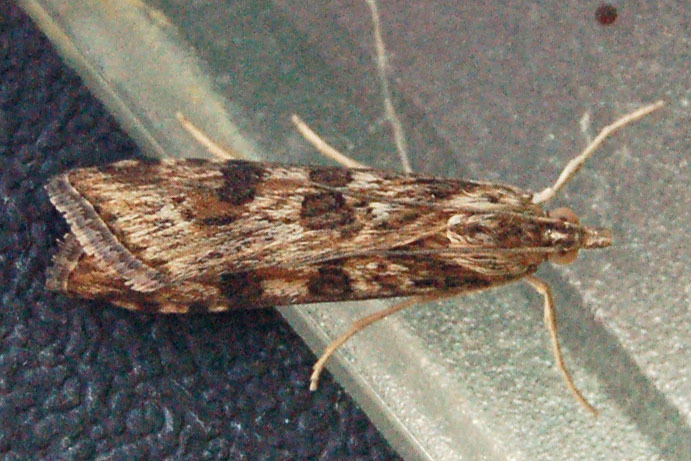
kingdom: Animalia
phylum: Arthropoda
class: Insecta
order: Lepidoptera
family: Crambidae
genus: Nomophila
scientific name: Nomophila nearctica
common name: American rush veneer
